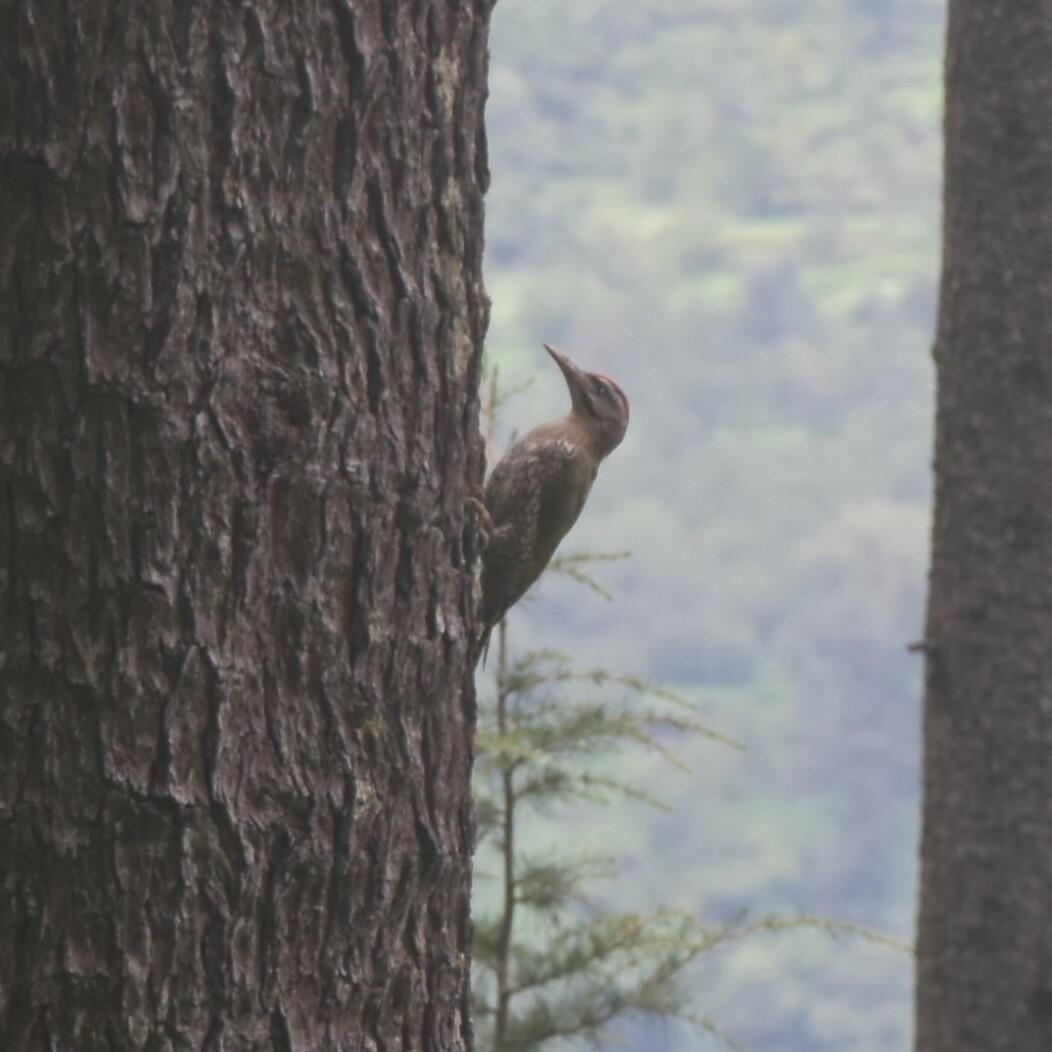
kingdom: Animalia
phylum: Chordata
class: Aves
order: Piciformes
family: Picidae
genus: Picus
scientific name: Picus squamatus
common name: Scaly-bellied woodpecker
